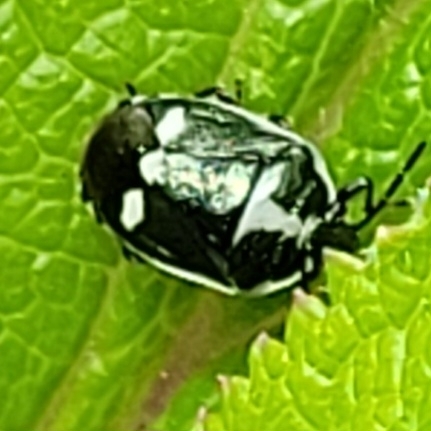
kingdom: Animalia
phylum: Arthropoda
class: Insecta
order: Hemiptera
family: Pentatomidae
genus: Eurydema
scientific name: Eurydema oleracea
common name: Cabbage bug
